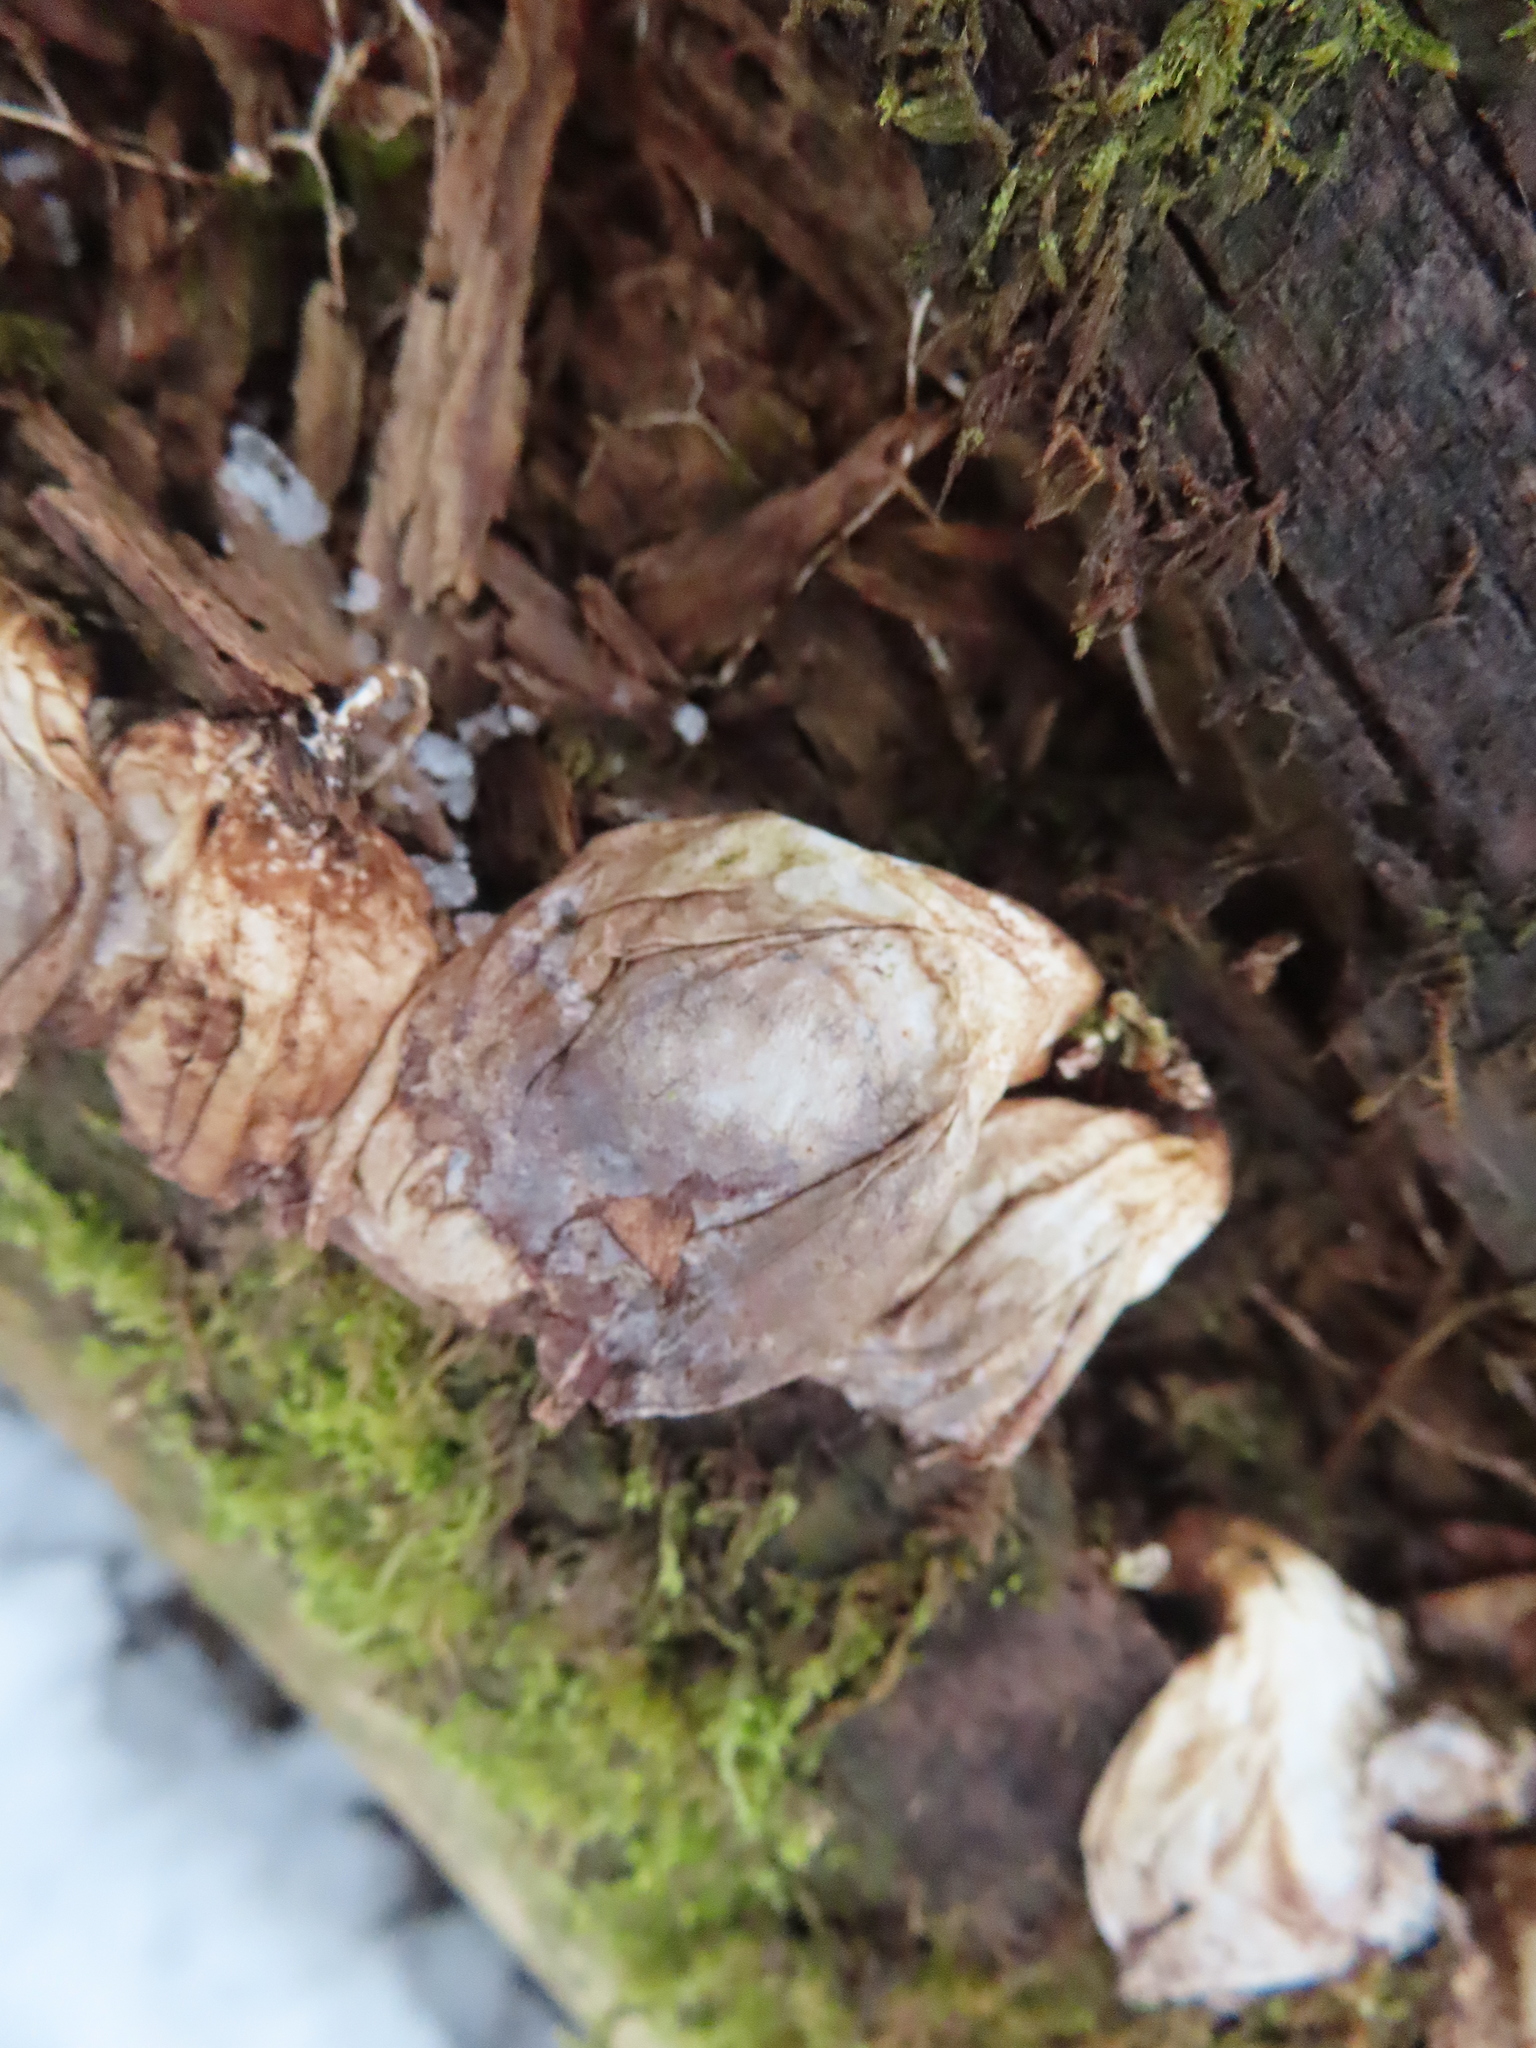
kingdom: Fungi
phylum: Basidiomycota
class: Agaricomycetes
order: Agaricales
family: Lycoperdaceae
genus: Apioperdon
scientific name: Apioperdon pyriforme
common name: Pear-shaped puffball
